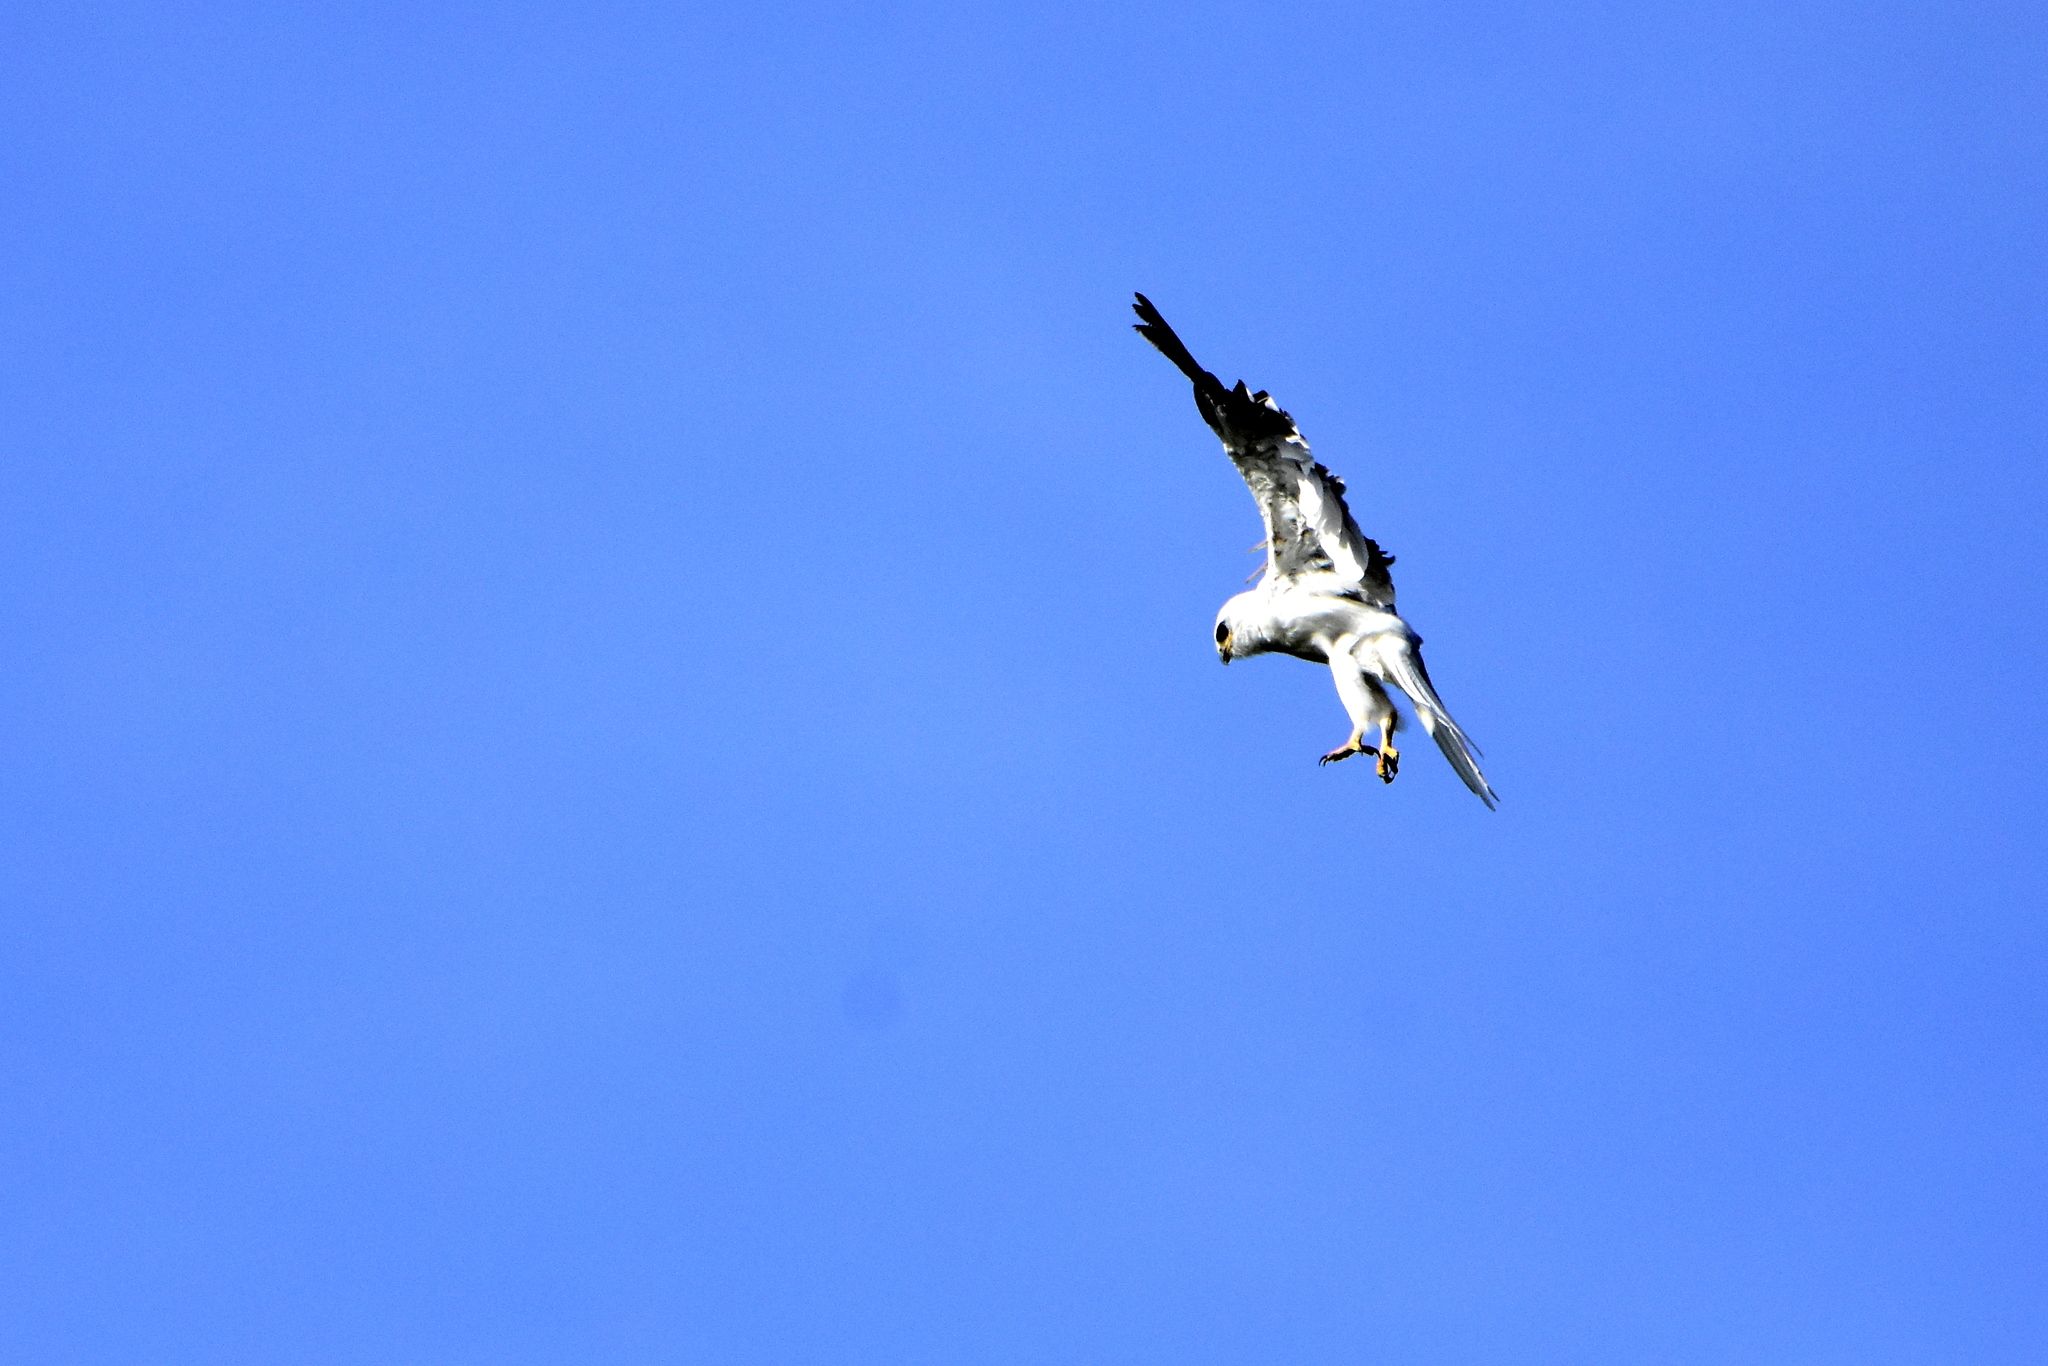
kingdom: Animalia
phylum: Chordata
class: Aves
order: Accipitriformes
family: Accipitridae
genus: Elanus
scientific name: Elanus leucurus
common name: White-tailed kite
